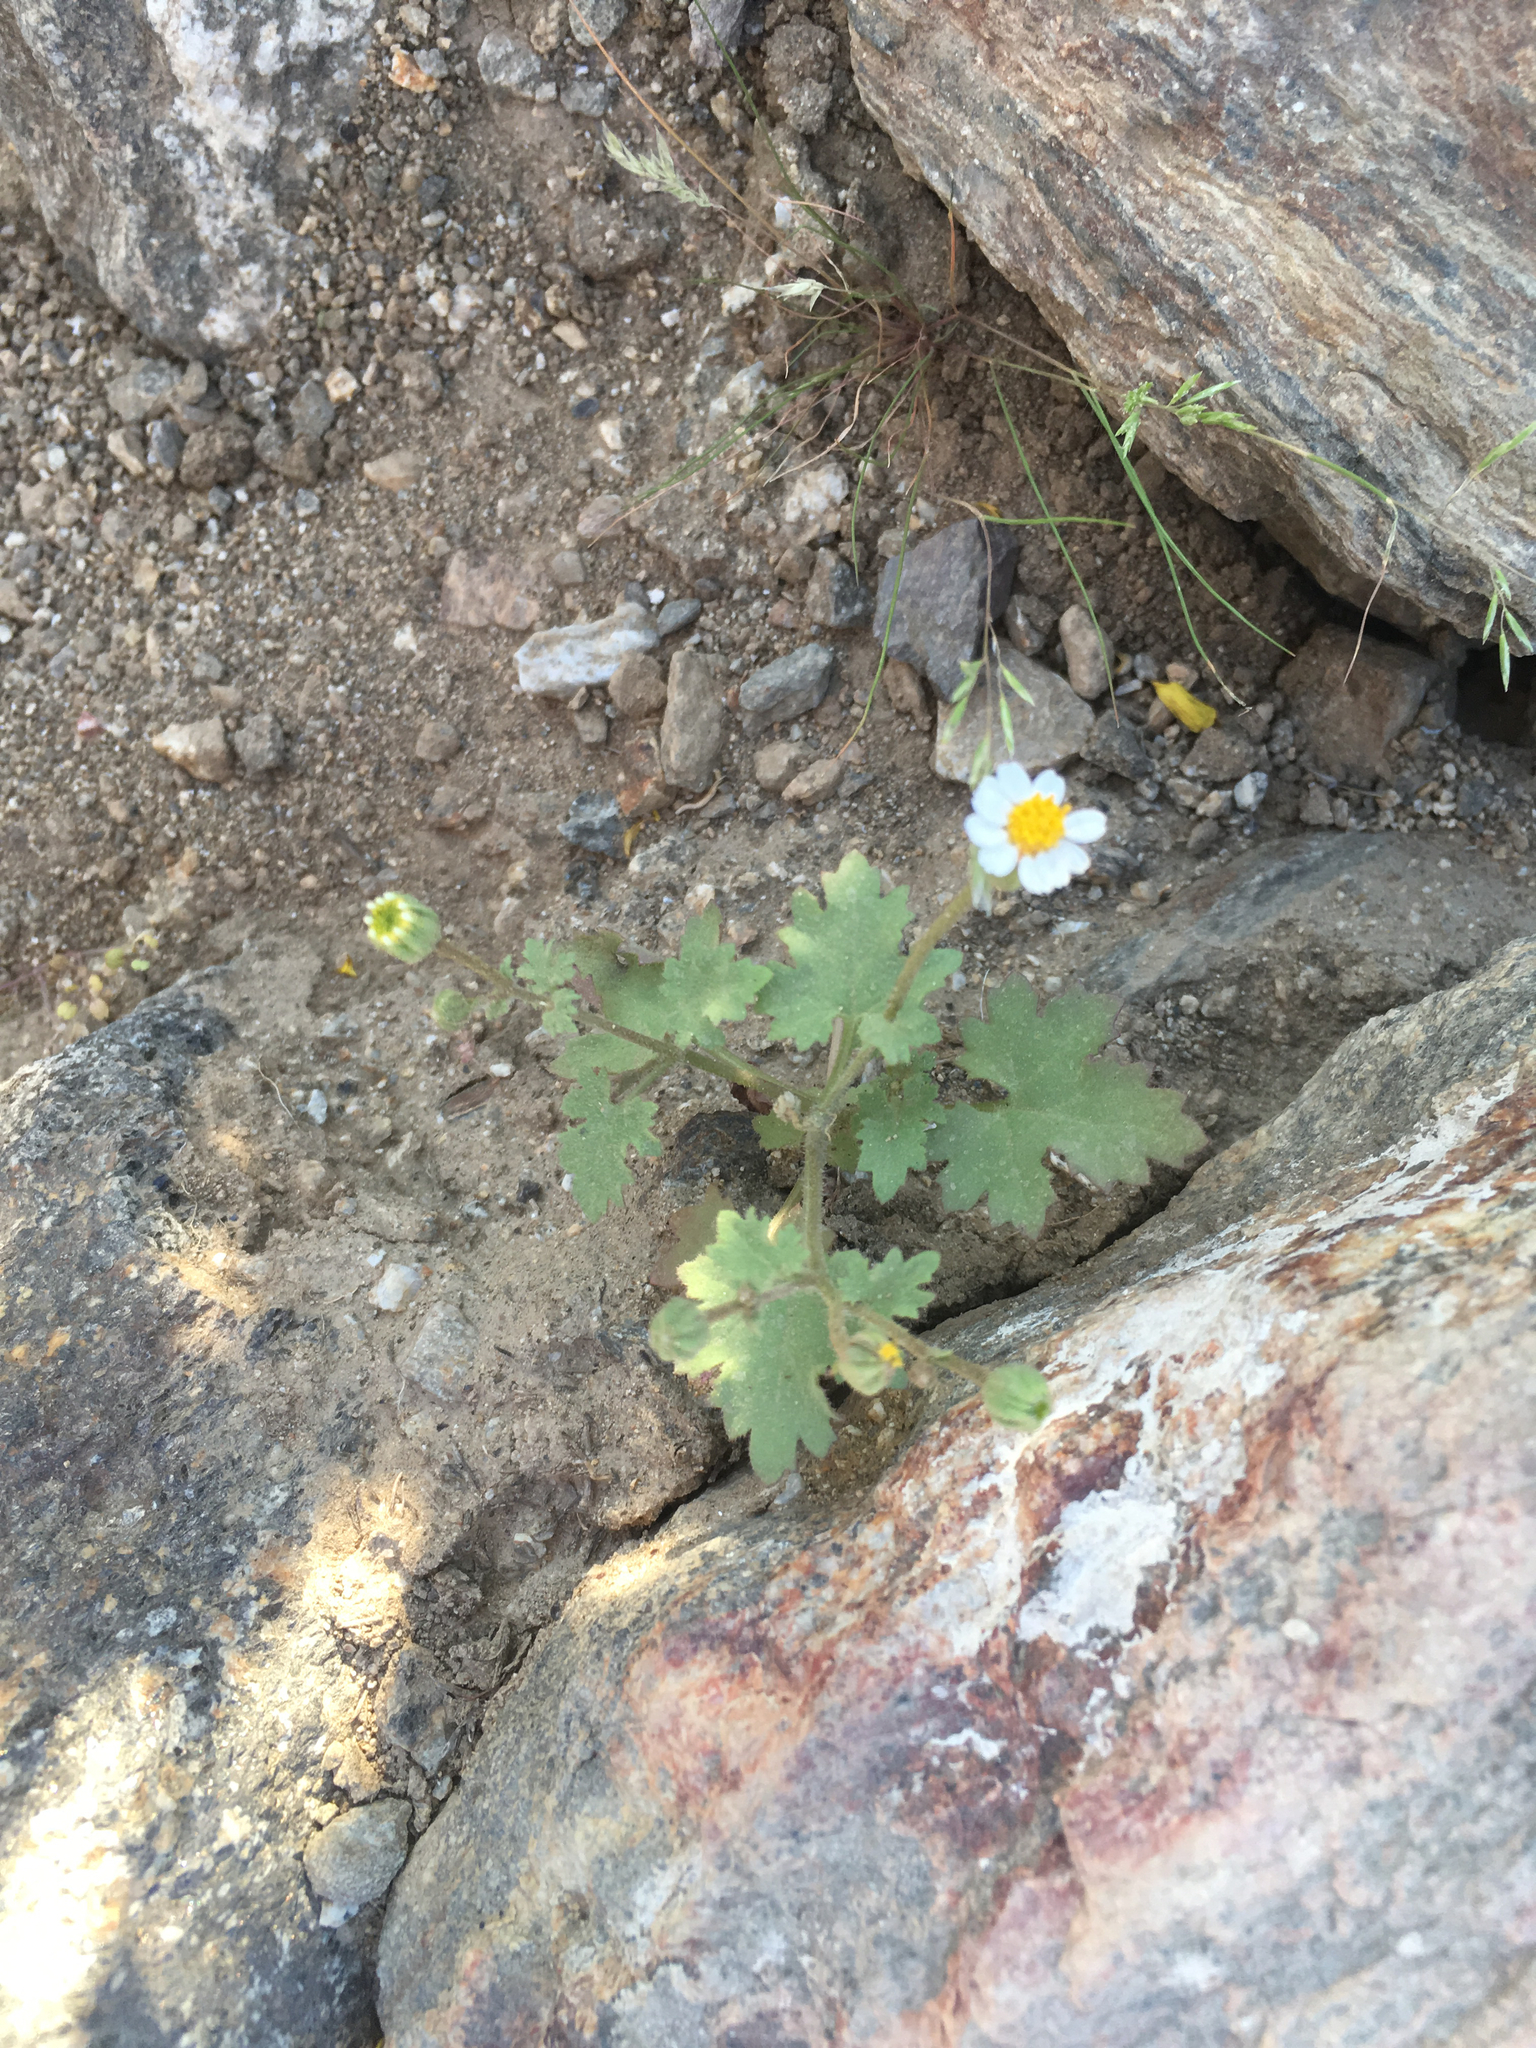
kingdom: Plantae
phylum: Tracheophyta
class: Magnoliopsida
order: Asterales
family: Asteraceae
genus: Laphamia
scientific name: Laphamia emoryi
